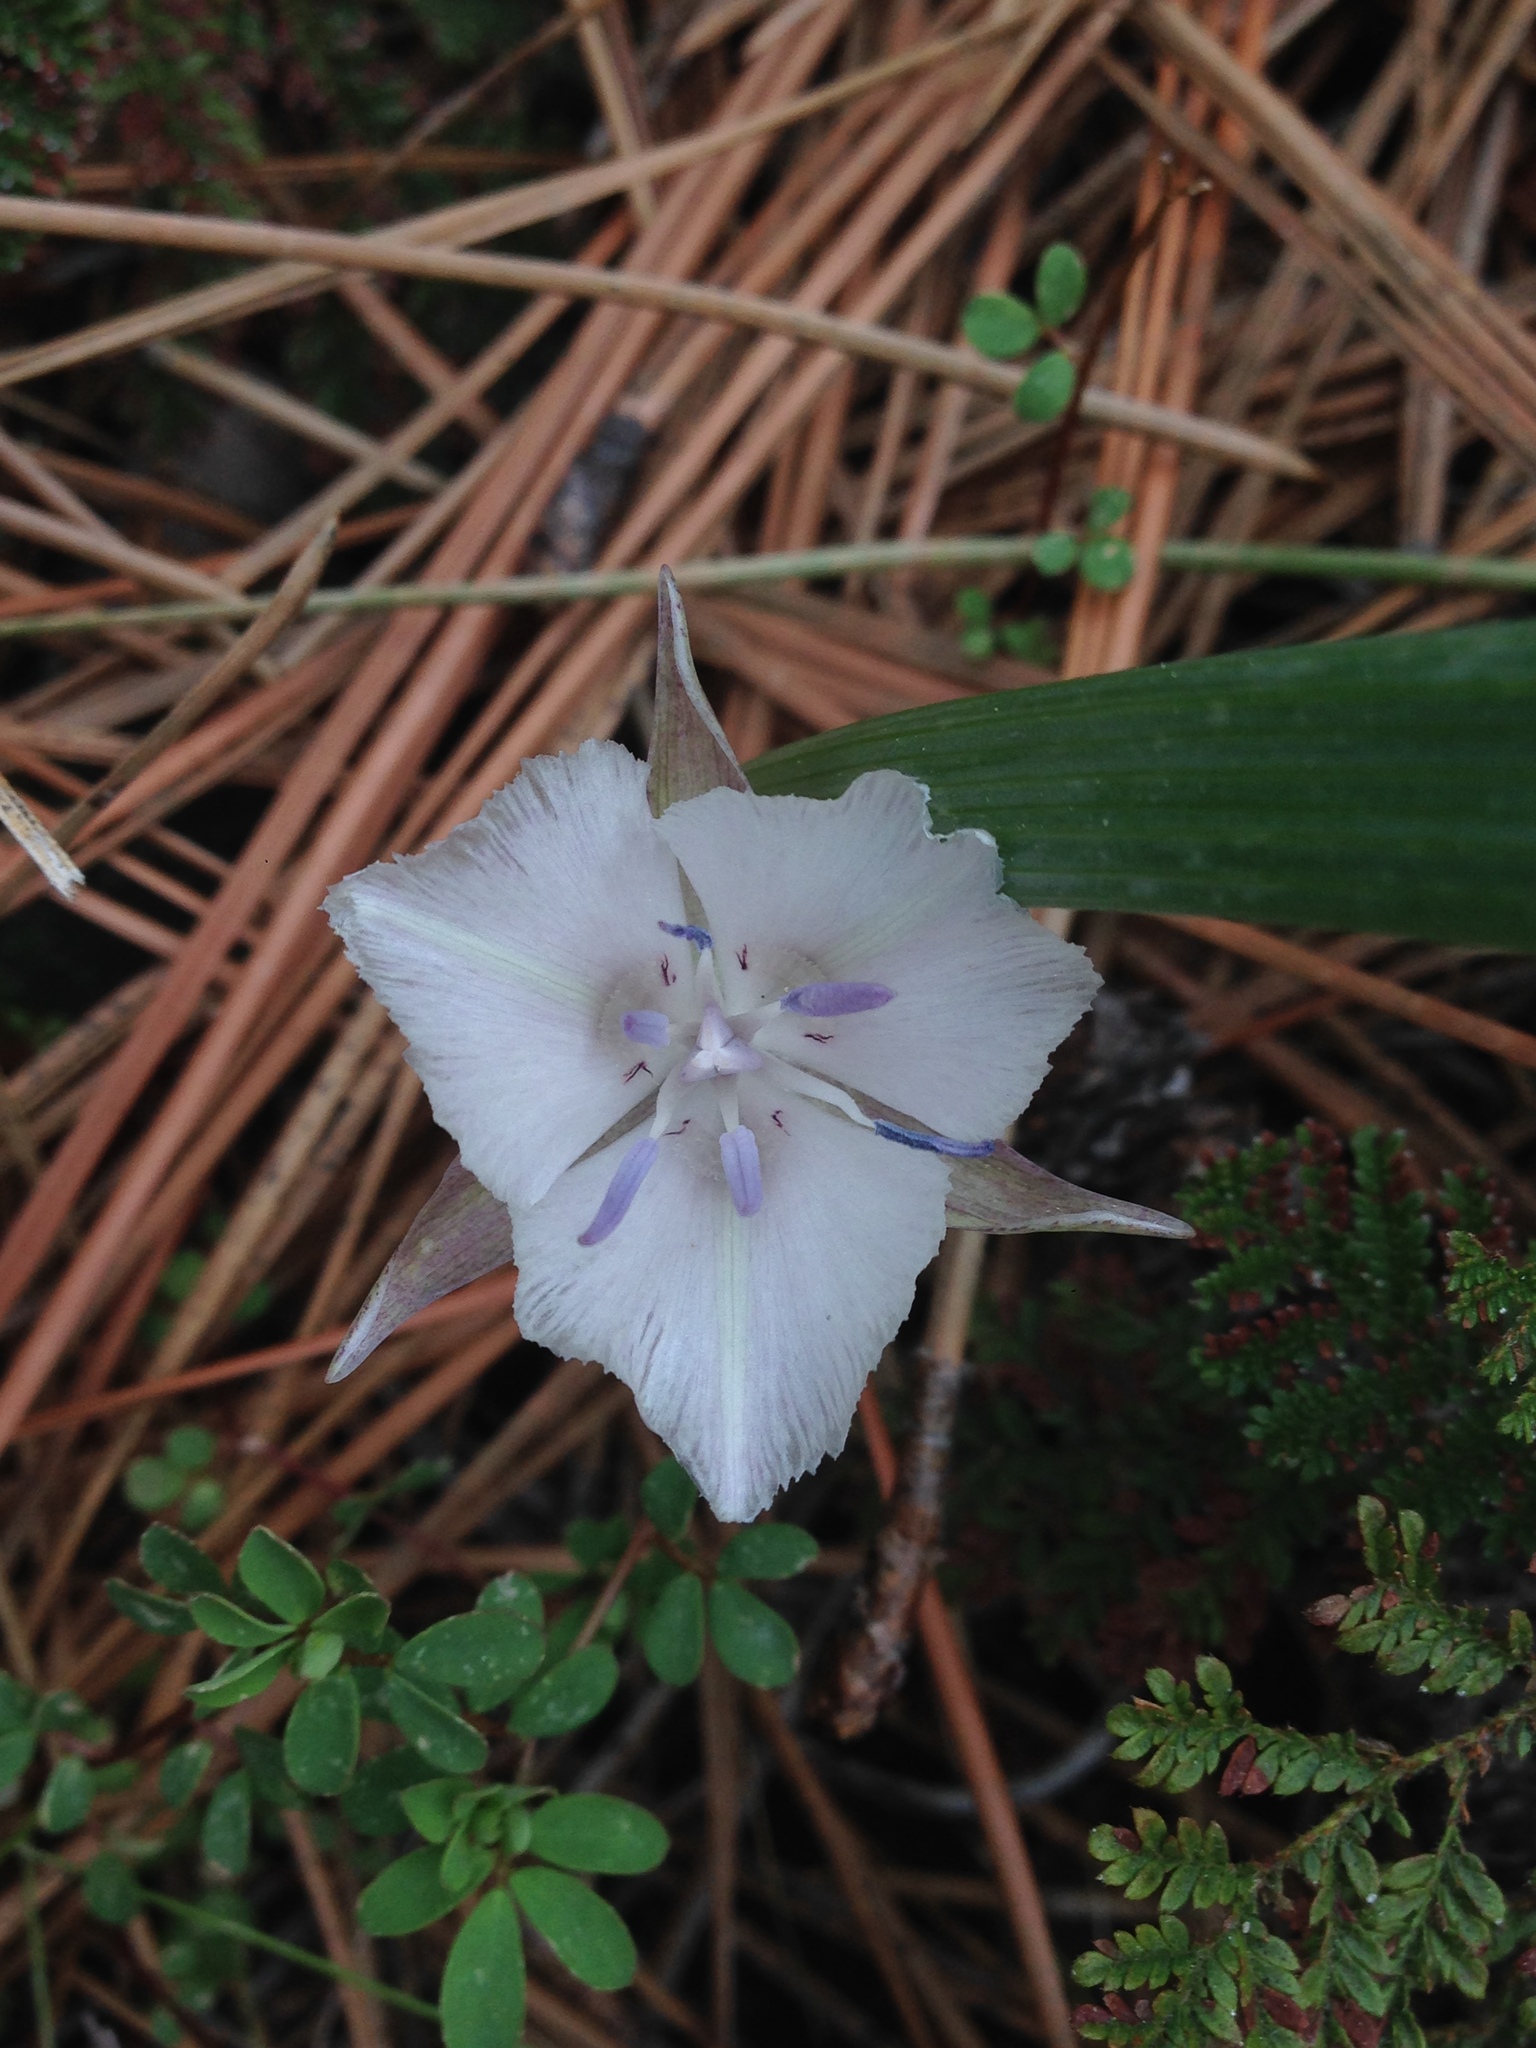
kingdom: Plantae
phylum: Tracheophyta
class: Liliopsida
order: Liliales
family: Liliaceae
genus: Calochortus
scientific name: Calochortus minimus
